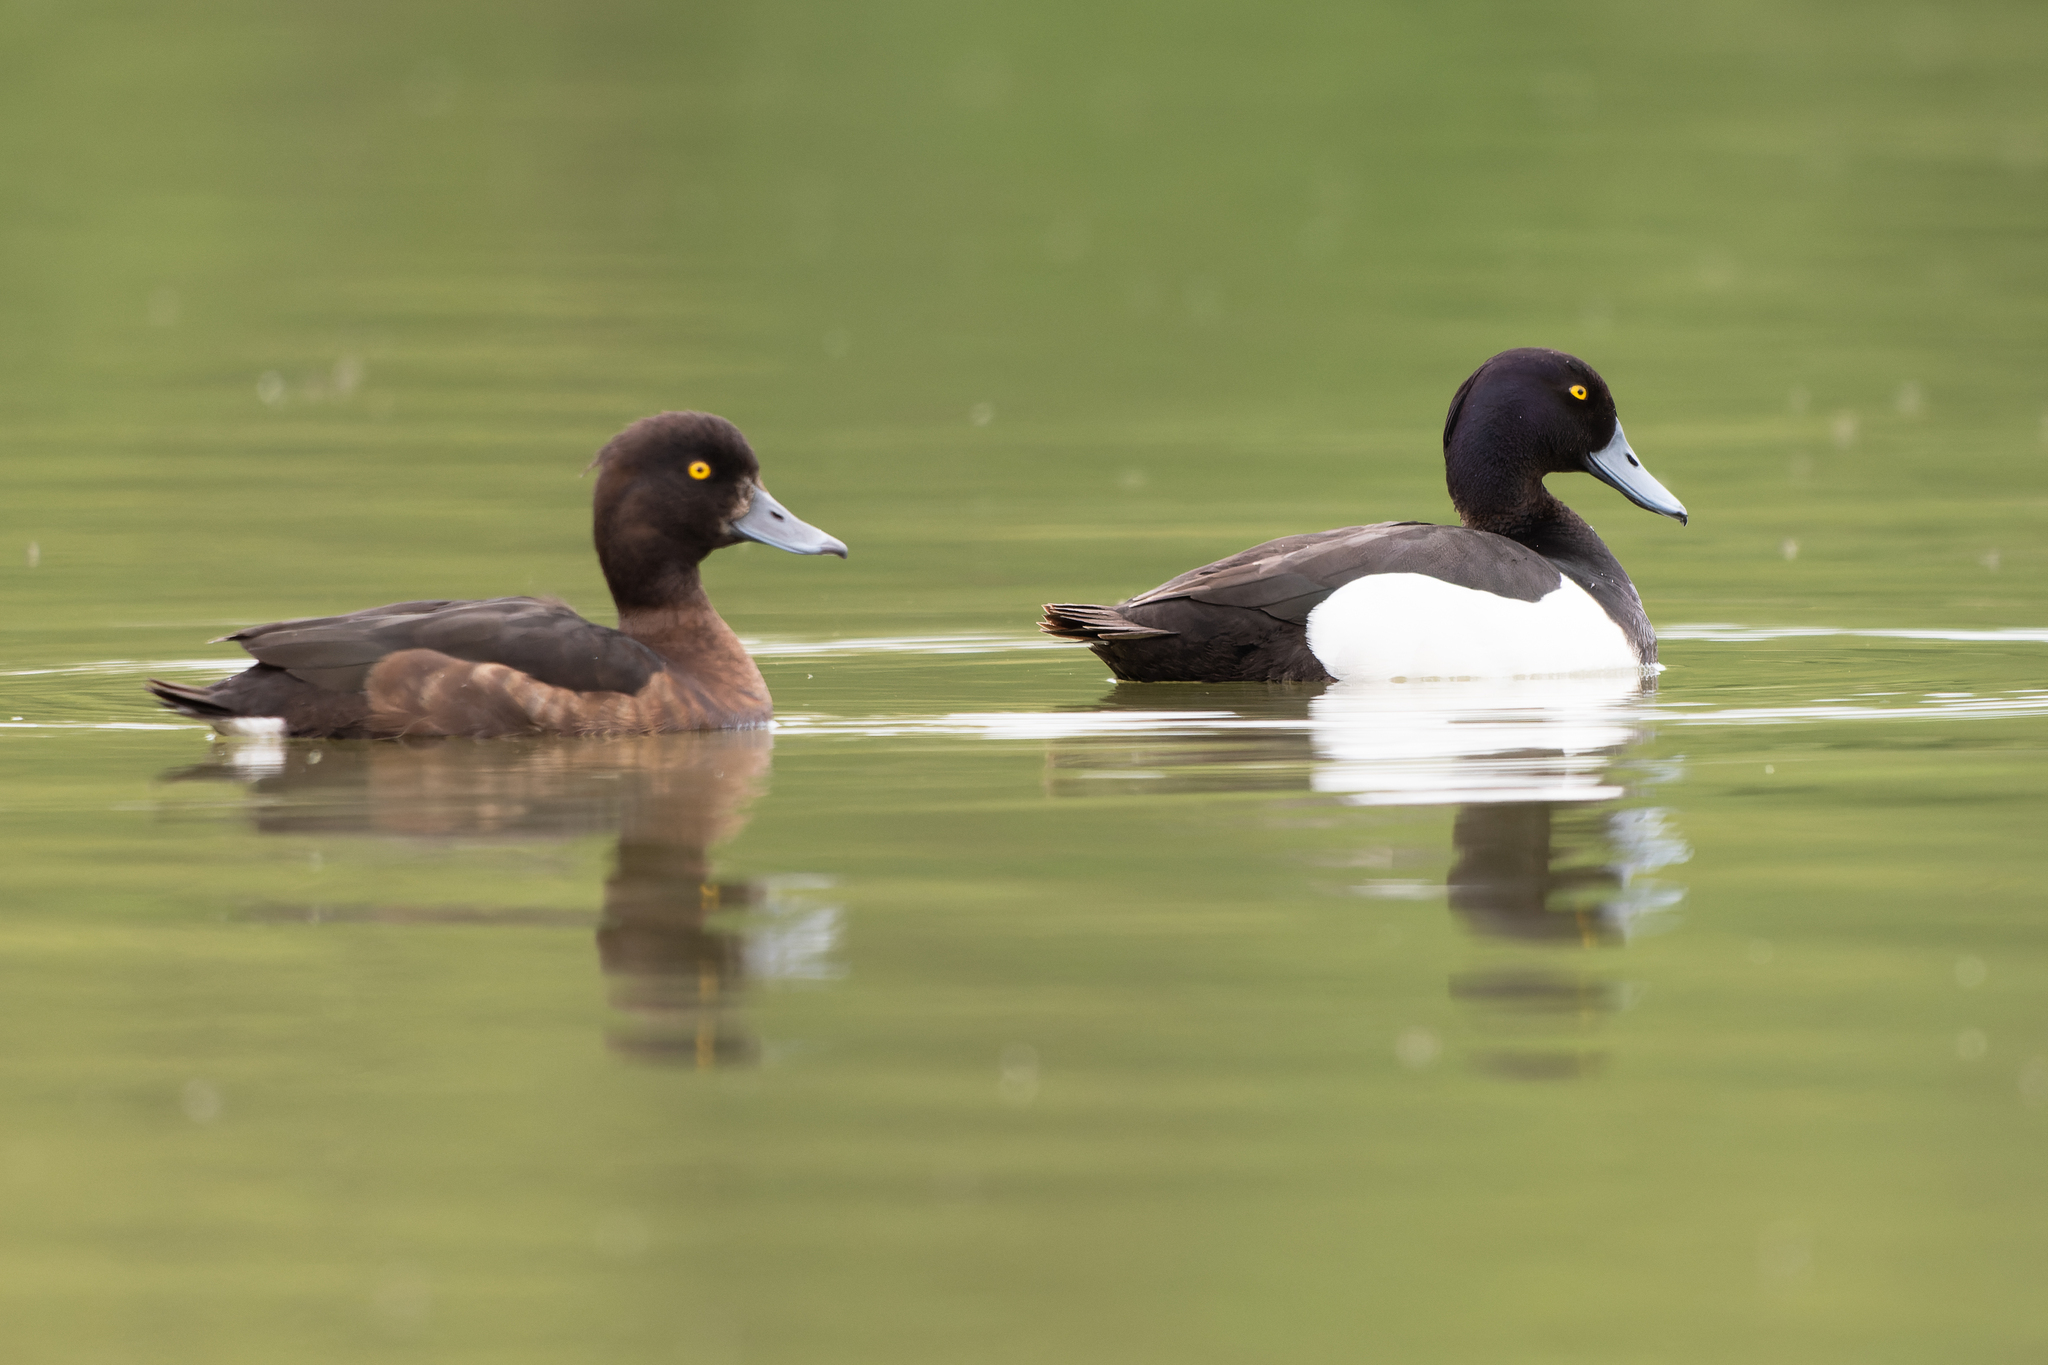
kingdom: Animalia
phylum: Chordata
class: Aves
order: Anseriformes
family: Anatidae
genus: Aythya
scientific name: Aythya fuligula
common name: Tufted duck
